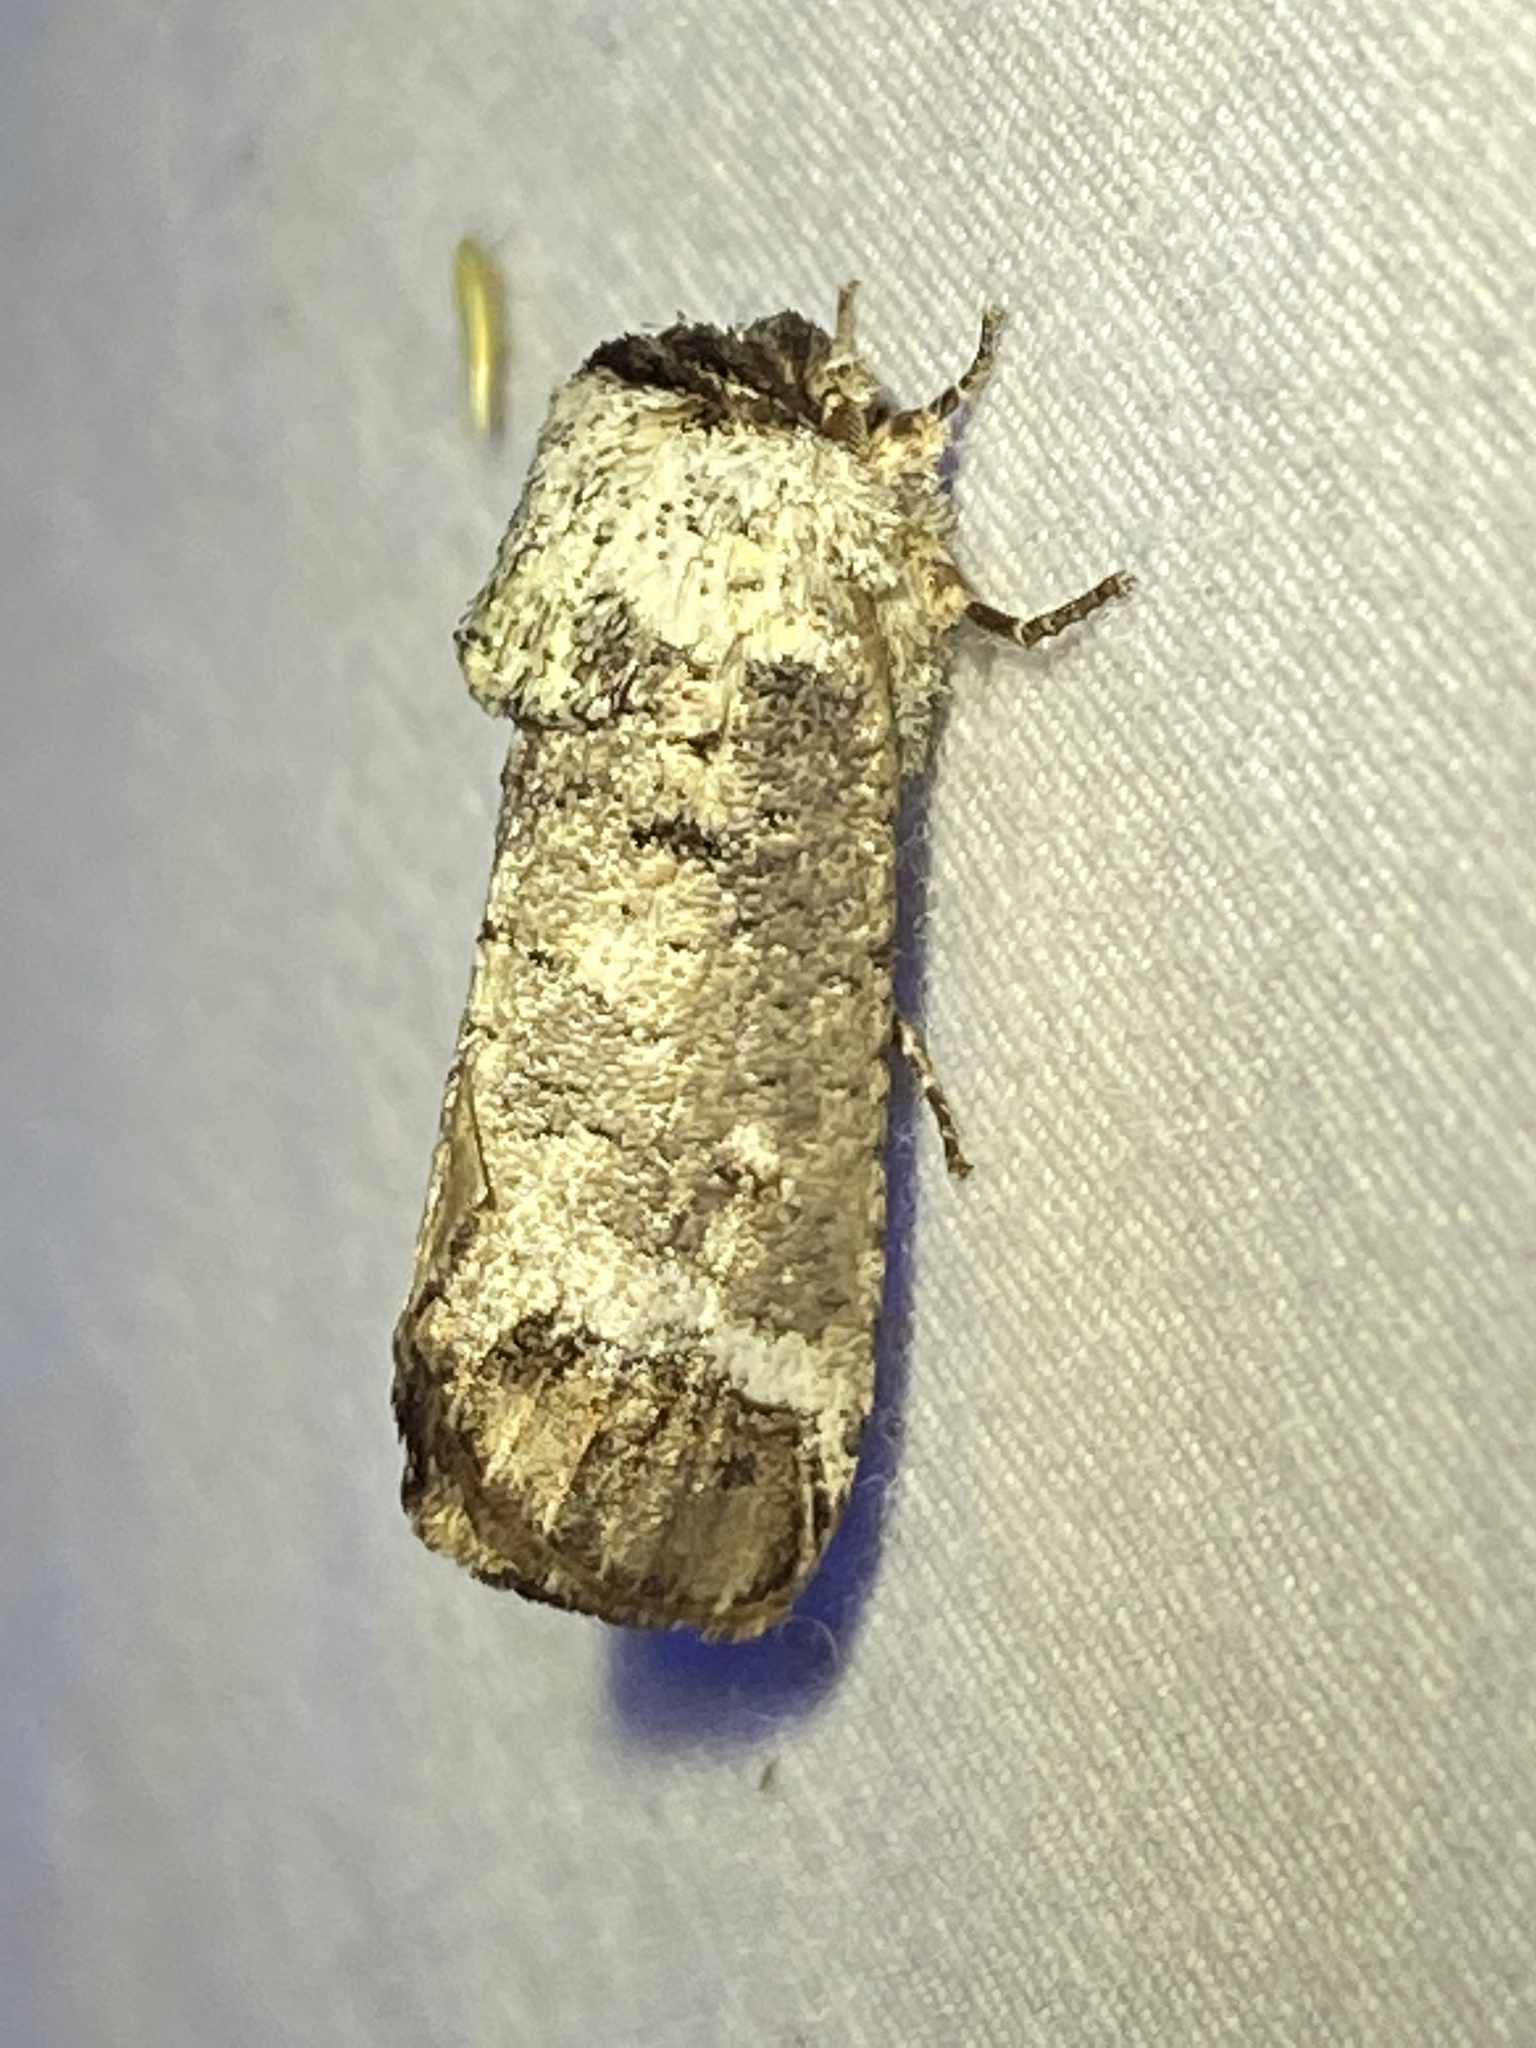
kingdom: Animalia
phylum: Arthropoda
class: Insecta
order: Lepidoptera
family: Cossidae
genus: Cossula
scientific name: Cossula magnifica
